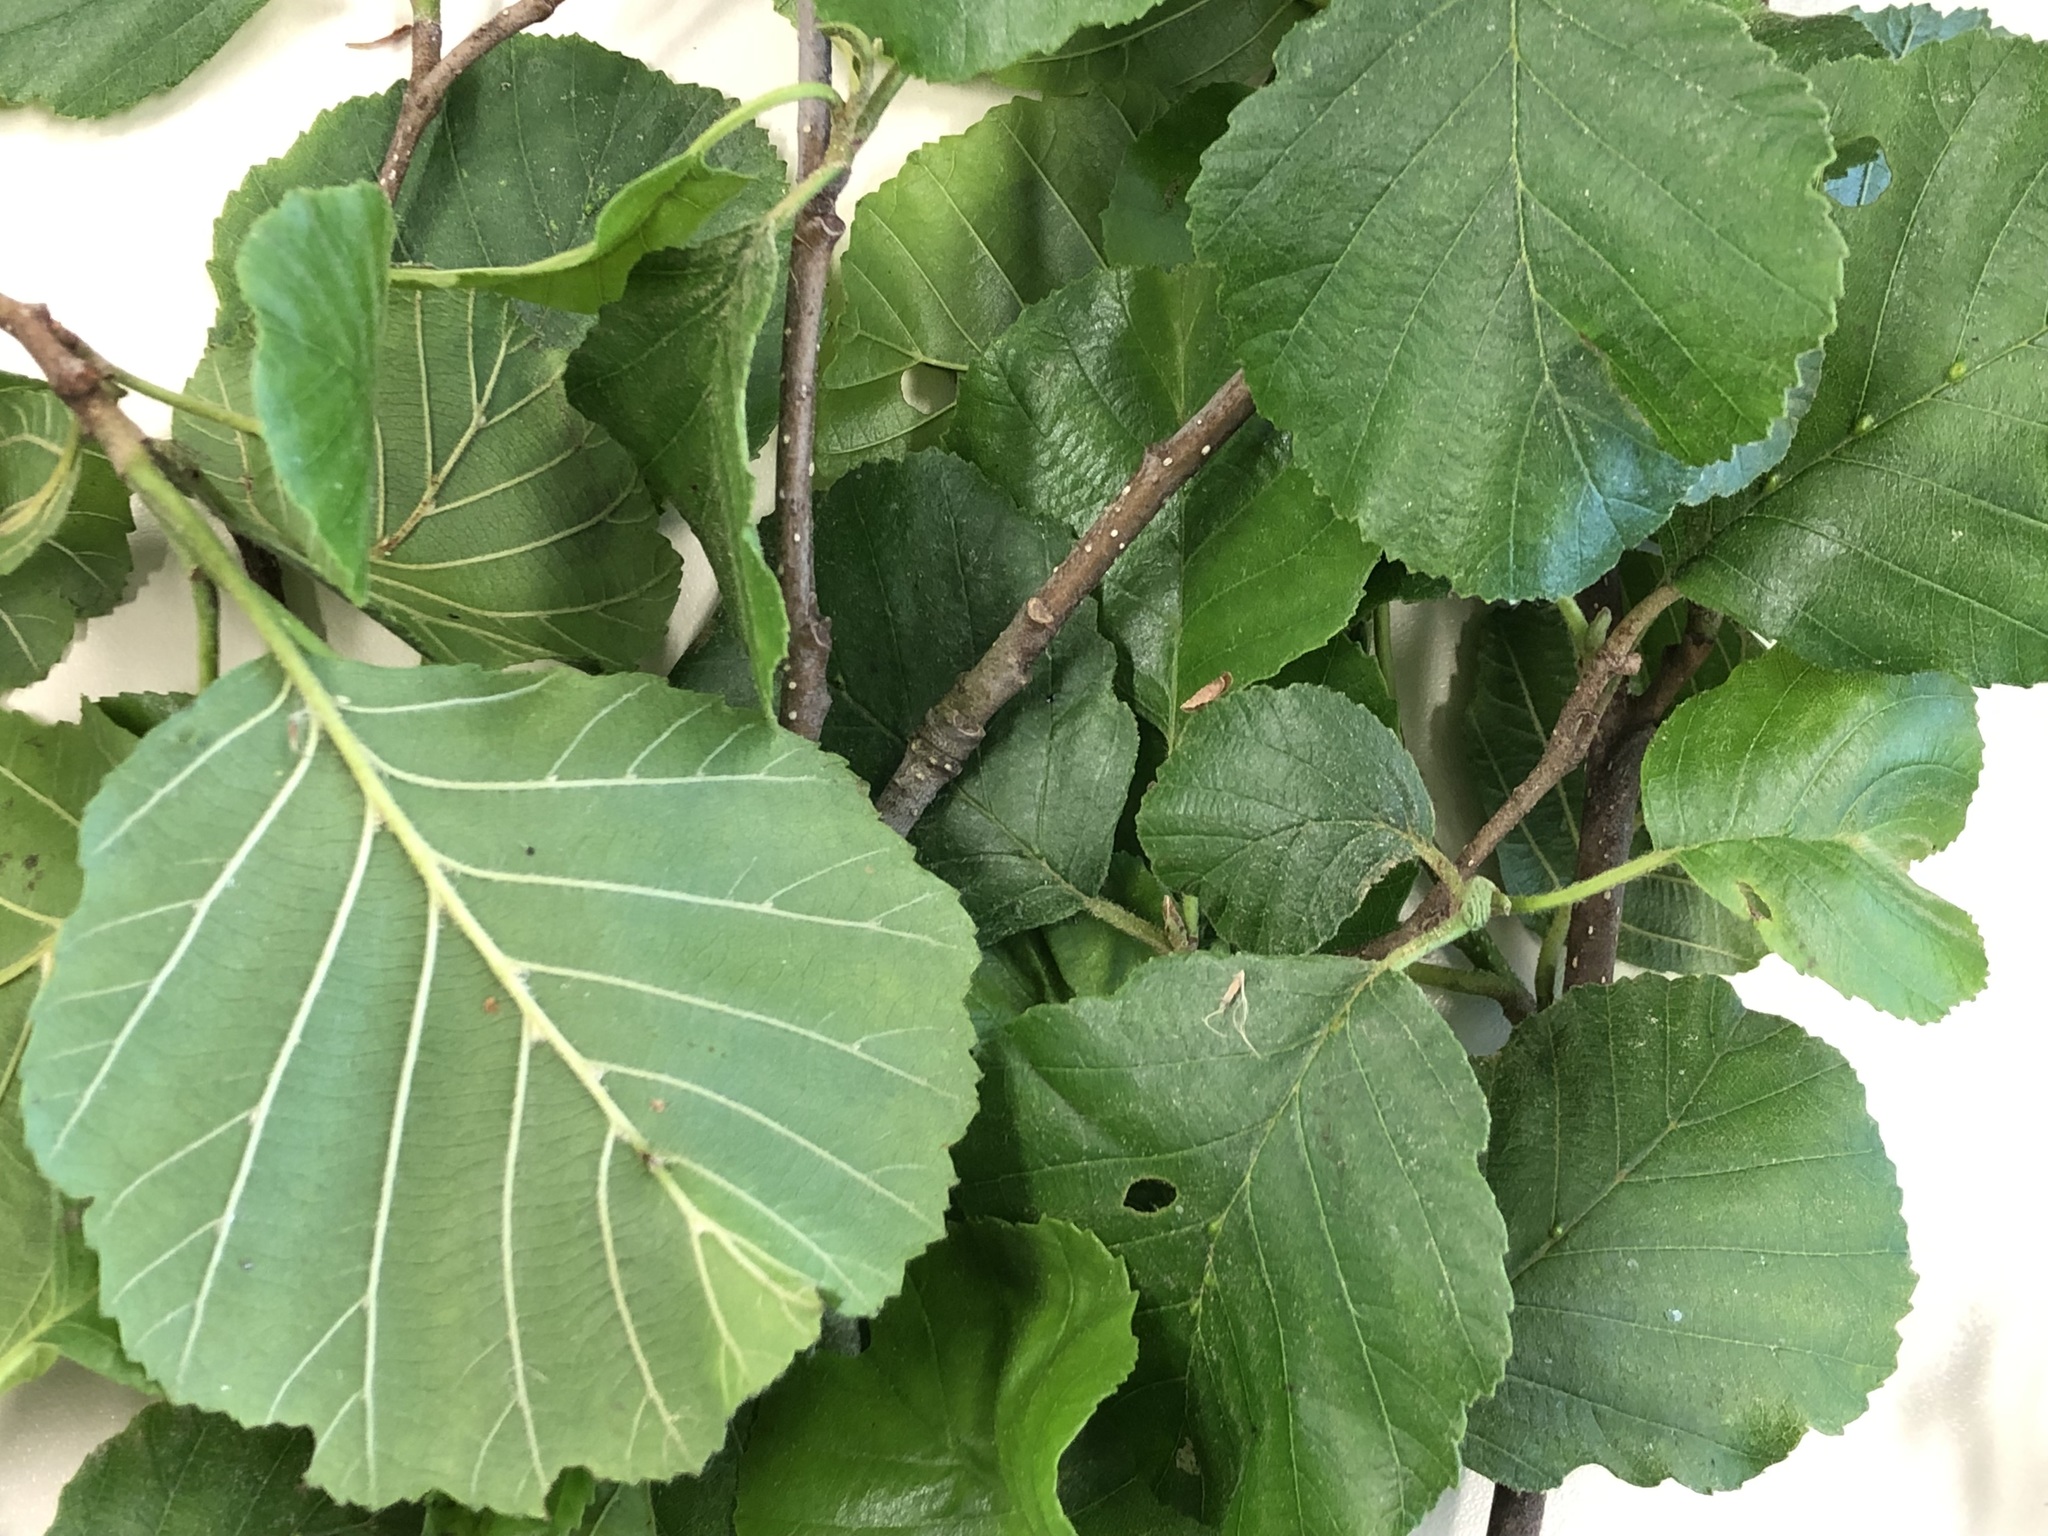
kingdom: Plantae
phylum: Tracheophyta
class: Magnoliopsida
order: Fagales
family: Betulaceae
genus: Alnus
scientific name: Alnus glutinosa
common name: Black alder
